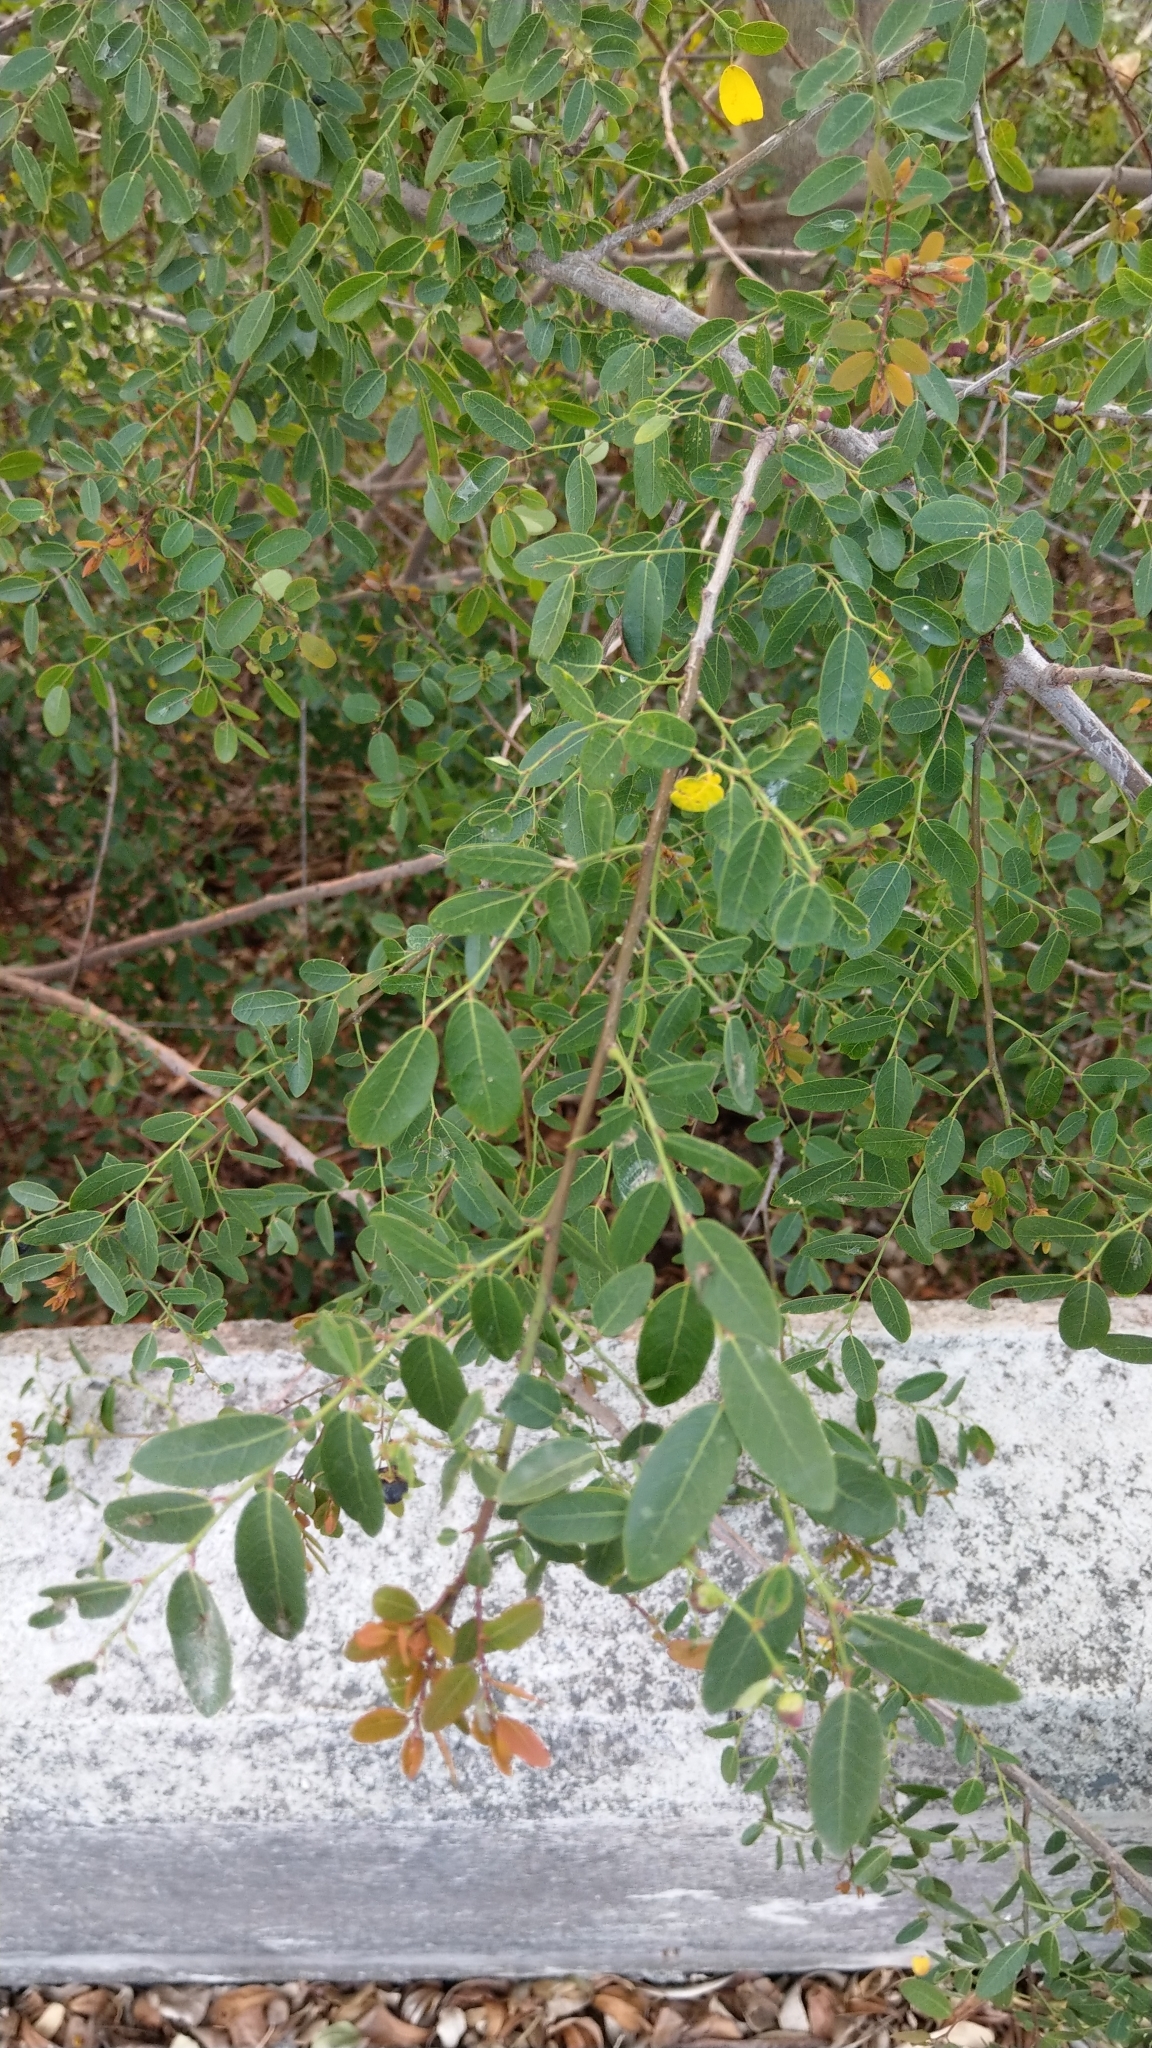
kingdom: Plantae
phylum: Tracheophyta
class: Magnoliopsida
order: Malpighiales
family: Phyllanthaceae
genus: Phyllanthus
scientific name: Phyllanthus reticulatus
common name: Potato bush
